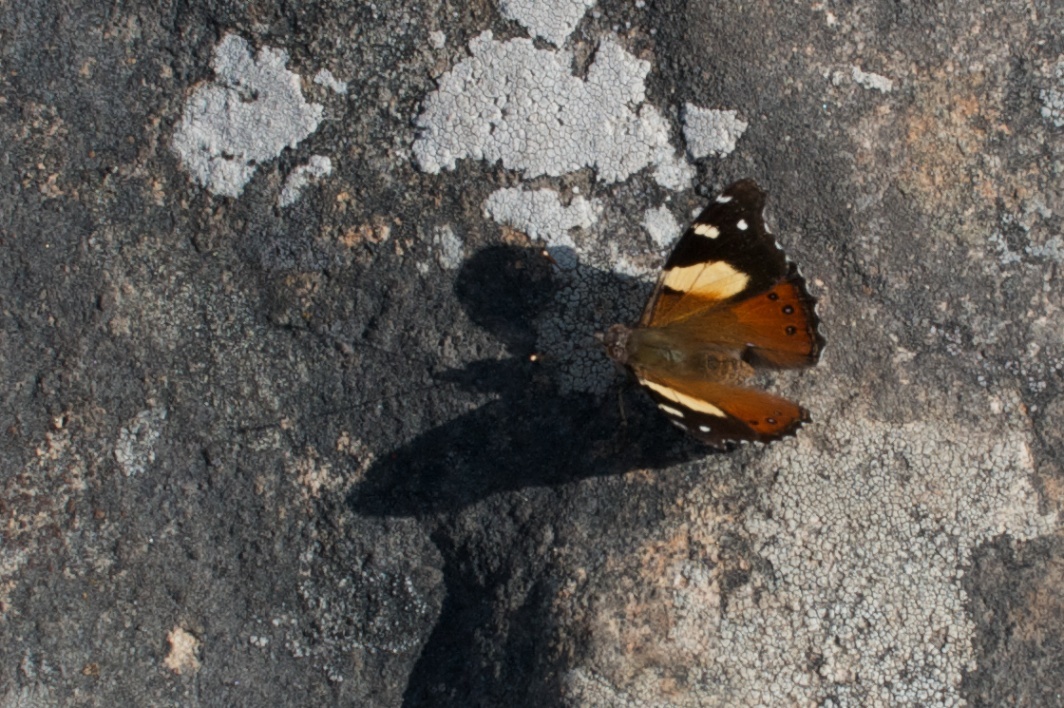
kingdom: Animalia
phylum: Arthropoda
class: Insecta
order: Lepidoptera
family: Nymphalidae
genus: Vanessa
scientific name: Vanessa itea
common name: Yellow admiral
